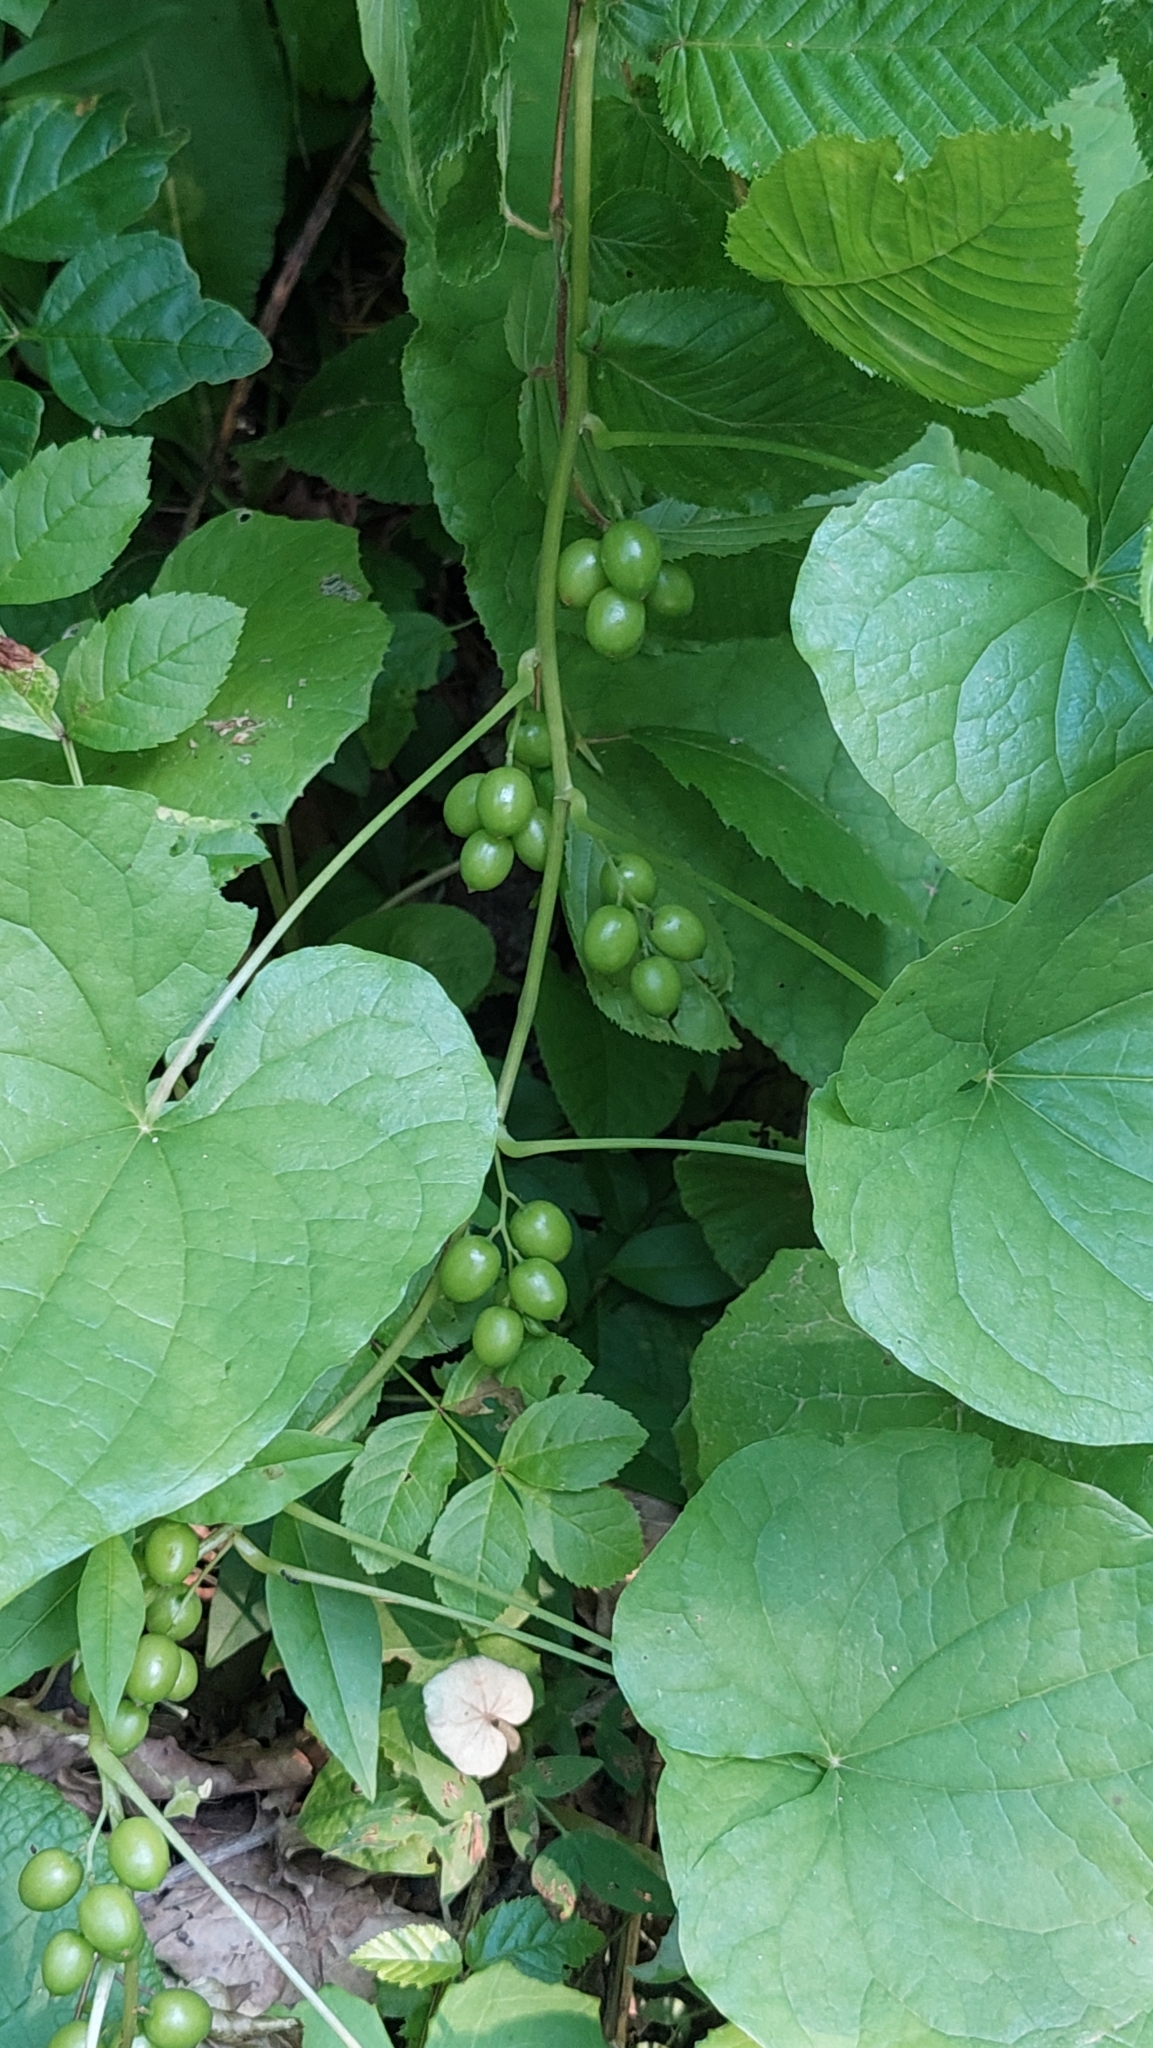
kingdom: Plantae
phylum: Tracheophyta
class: Liliopsida
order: Dioscoreales
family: Dioscoreaceae
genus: Dioscorea
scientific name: Dioscorea communis
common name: Black-bindweed
